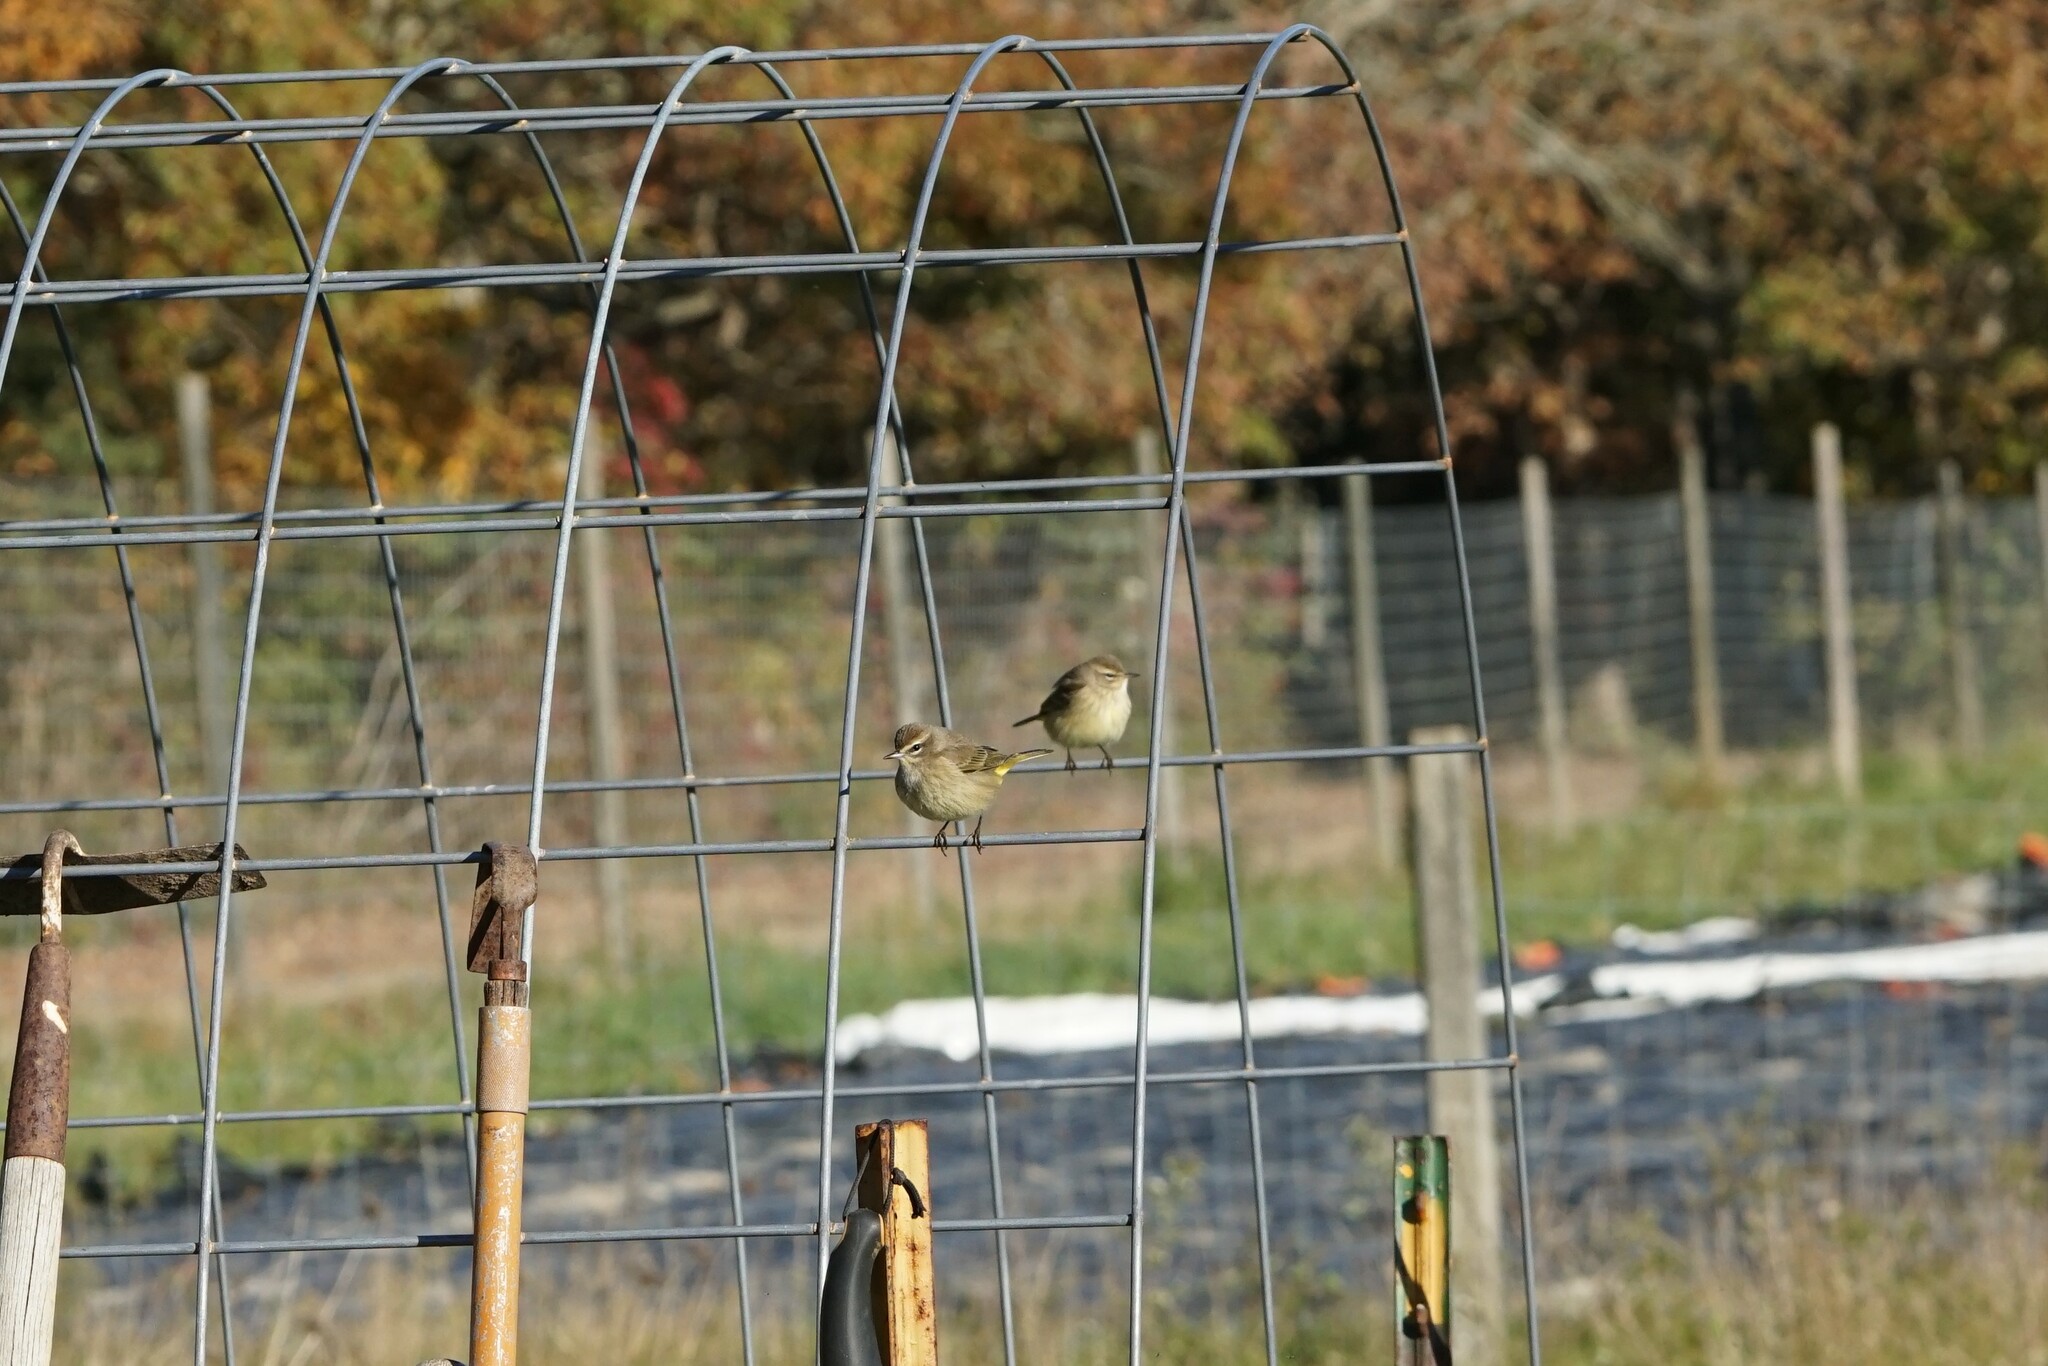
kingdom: Animalia
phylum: Chordata
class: Aves
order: Passeriformes
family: Parulidae
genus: Setophaga
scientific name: Setophaga palmarum
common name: Palm warbler
